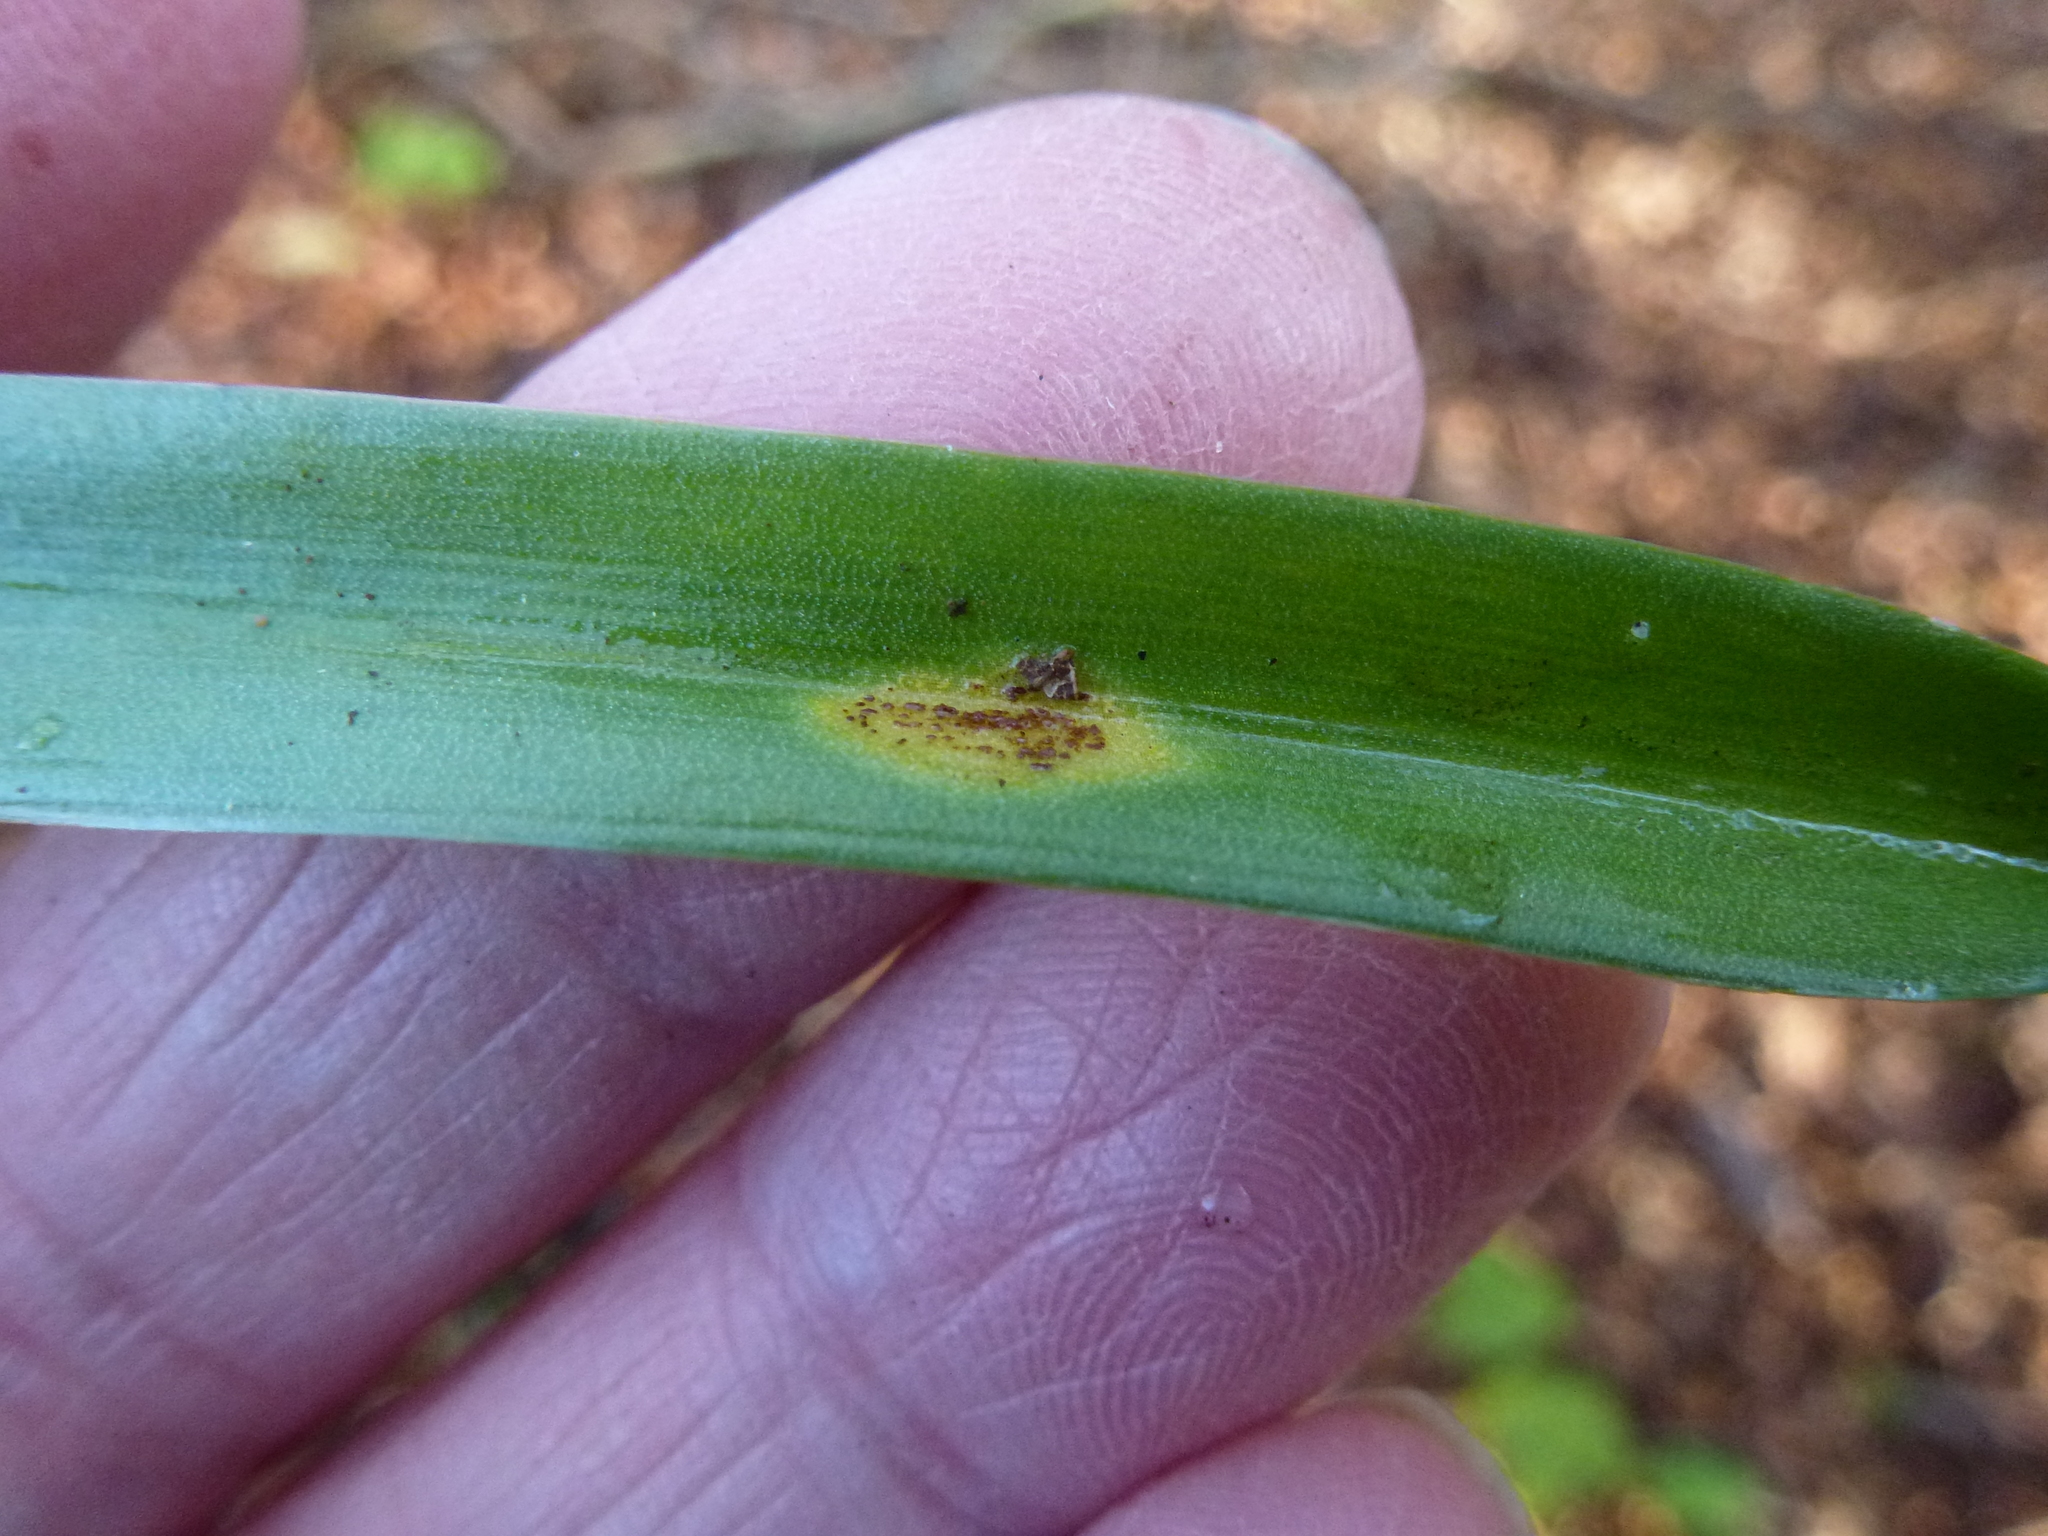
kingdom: Fungi
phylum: Basidiomycota
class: Pucciniomycetes
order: Pucciniales
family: Pucciniaceae
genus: Uromyces
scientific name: Uromyces hyacinthi
